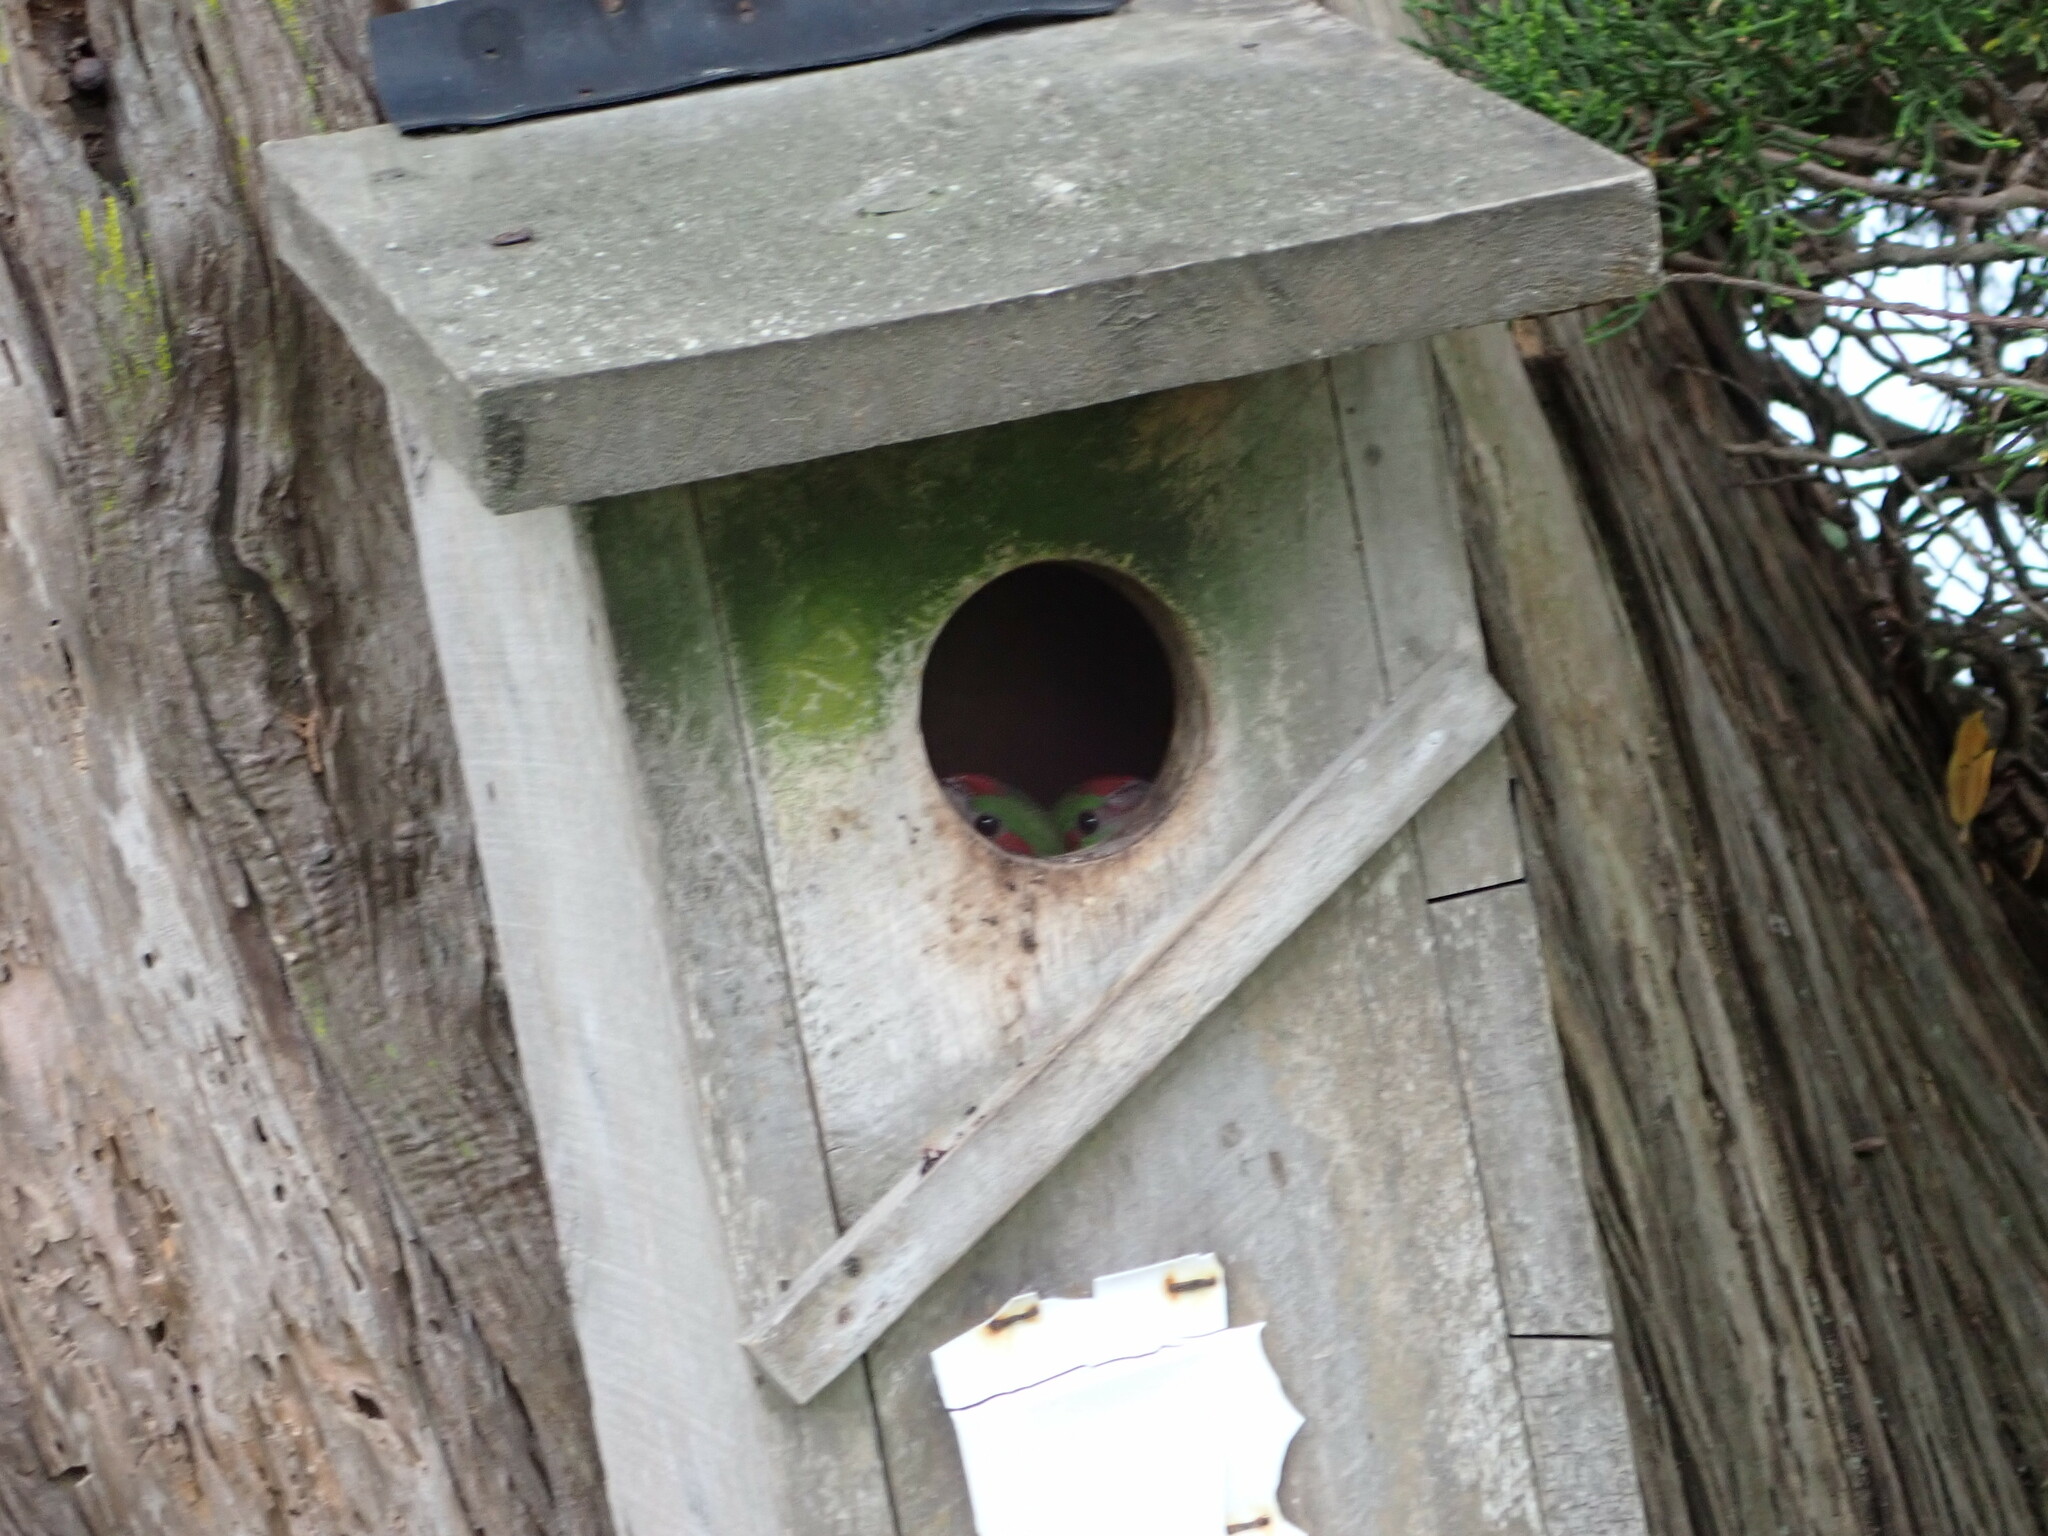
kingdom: Animalia
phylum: Chordata
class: Aves
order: Psittaciformes
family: Psittacidae
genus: Cyanoramphus
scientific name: Cyanoramphus novaezelandiae
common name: Red-fronted parakeet
